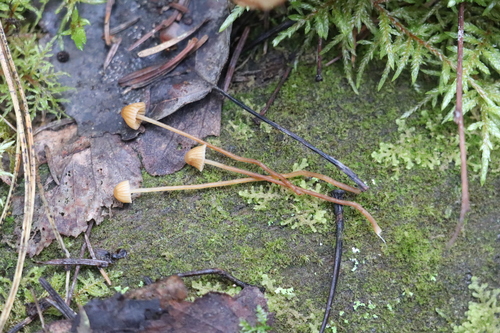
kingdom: Fungi
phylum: Basidiomycota
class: Agaricomycetes
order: Agaricales
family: Hymenogastraceae
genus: Galerina
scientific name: Galerina
